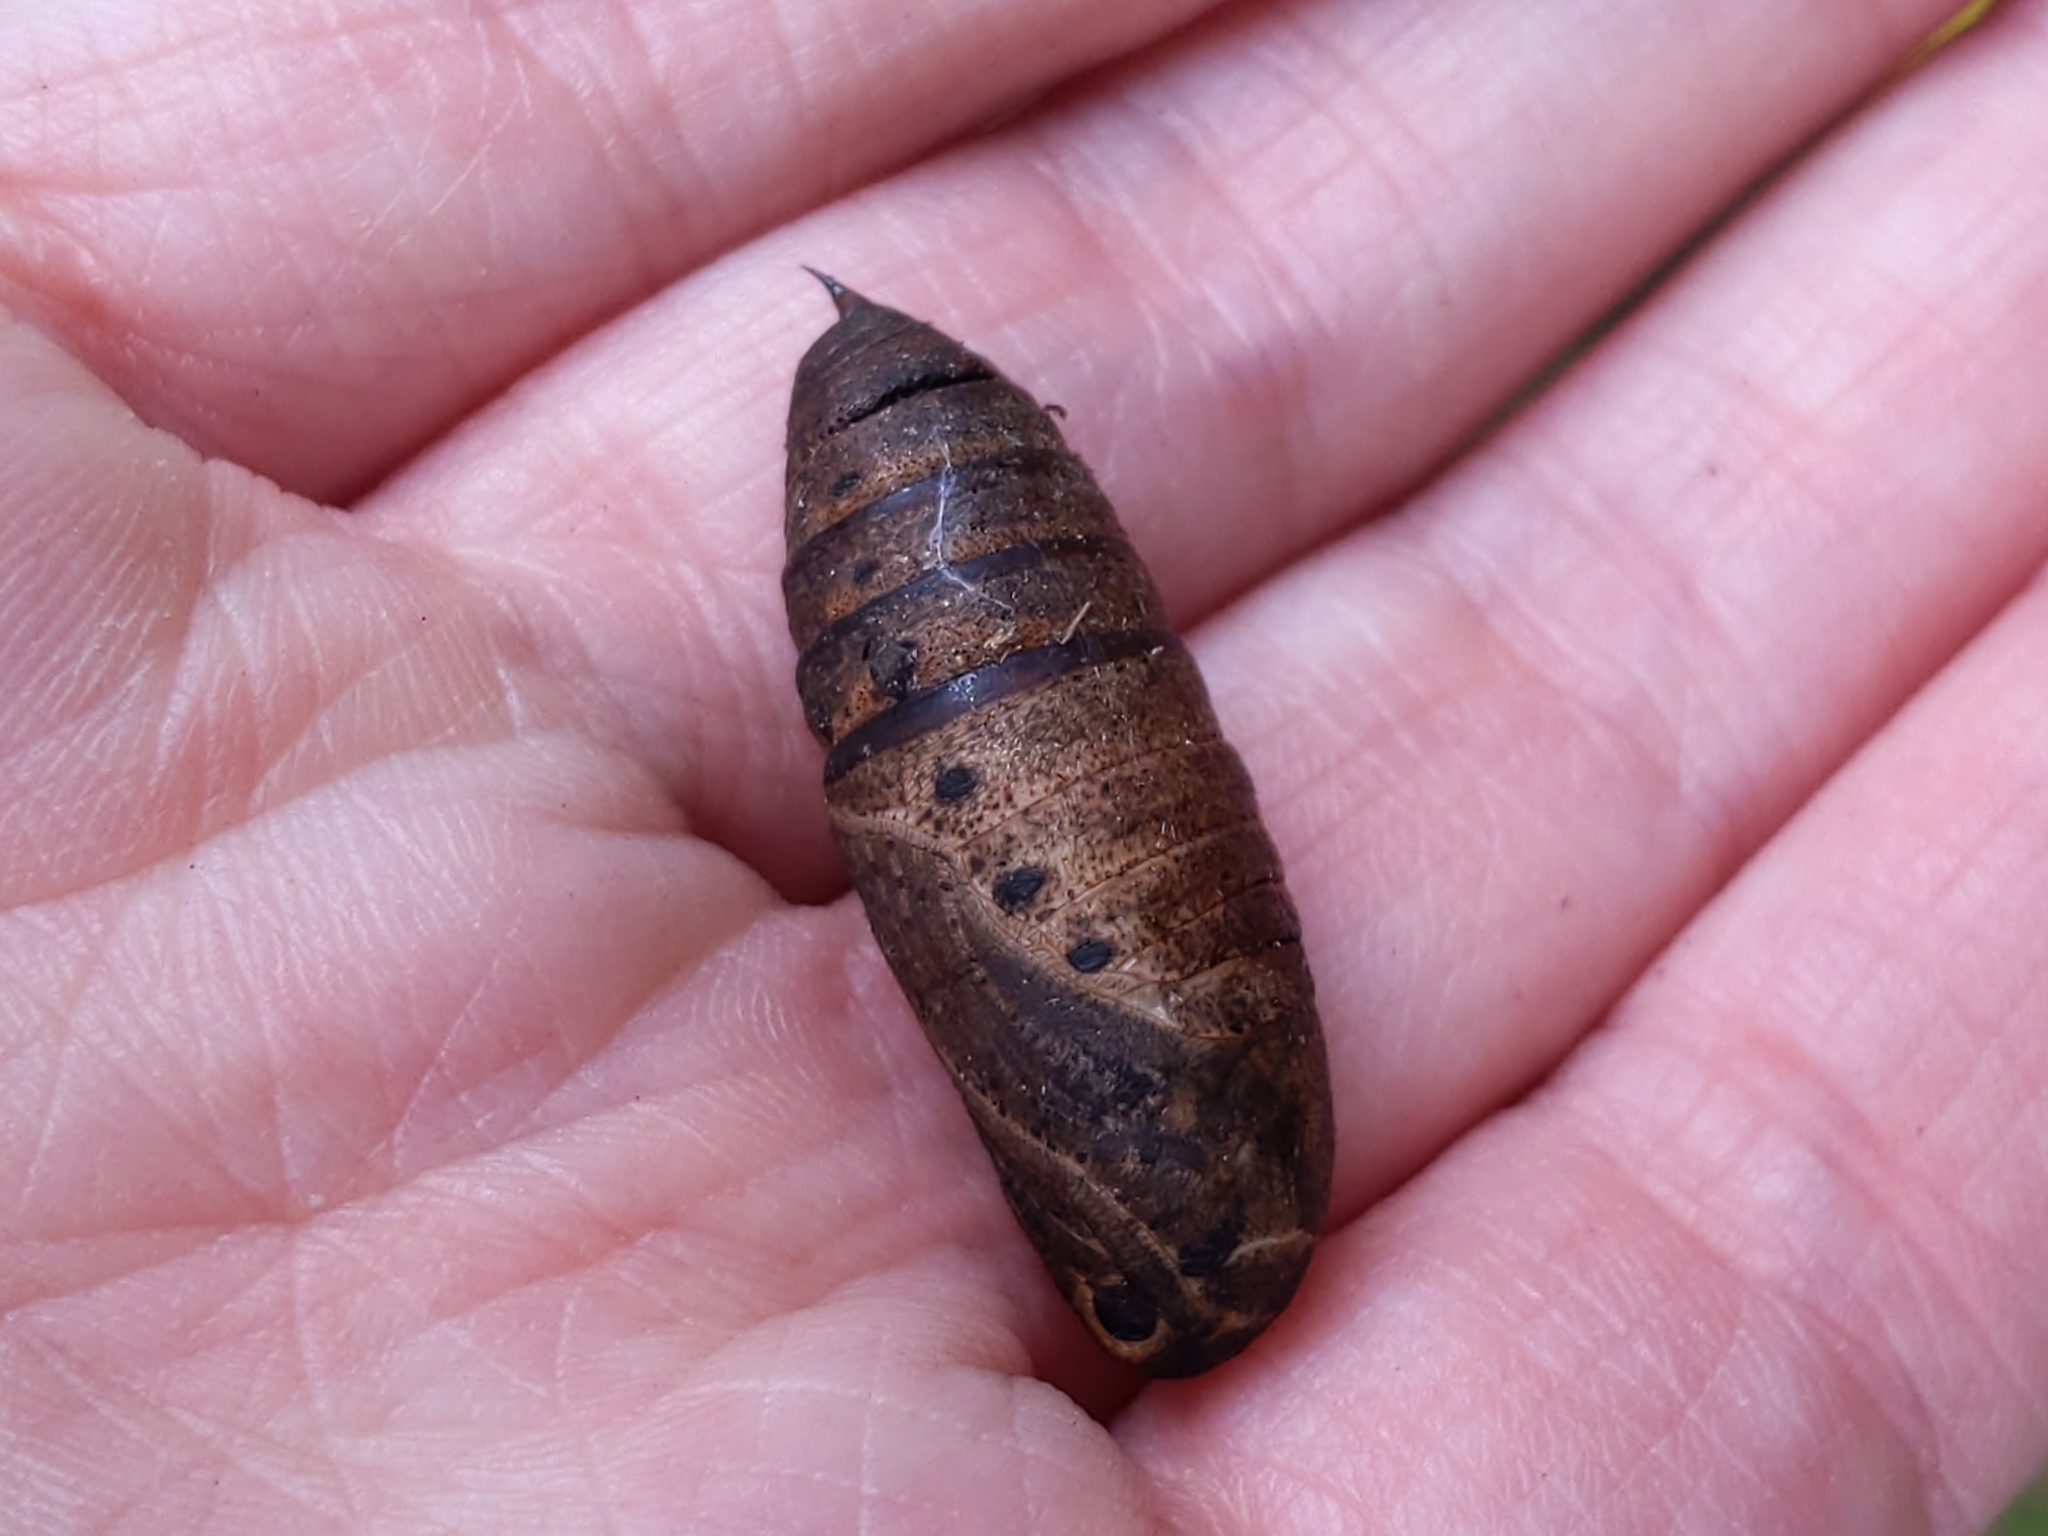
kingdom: Animalia
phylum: Arthropoda
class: Insecta
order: Lepidoptera
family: Sphingidae
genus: Darapsa
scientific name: Darapsa myron
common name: Hog sphinx
